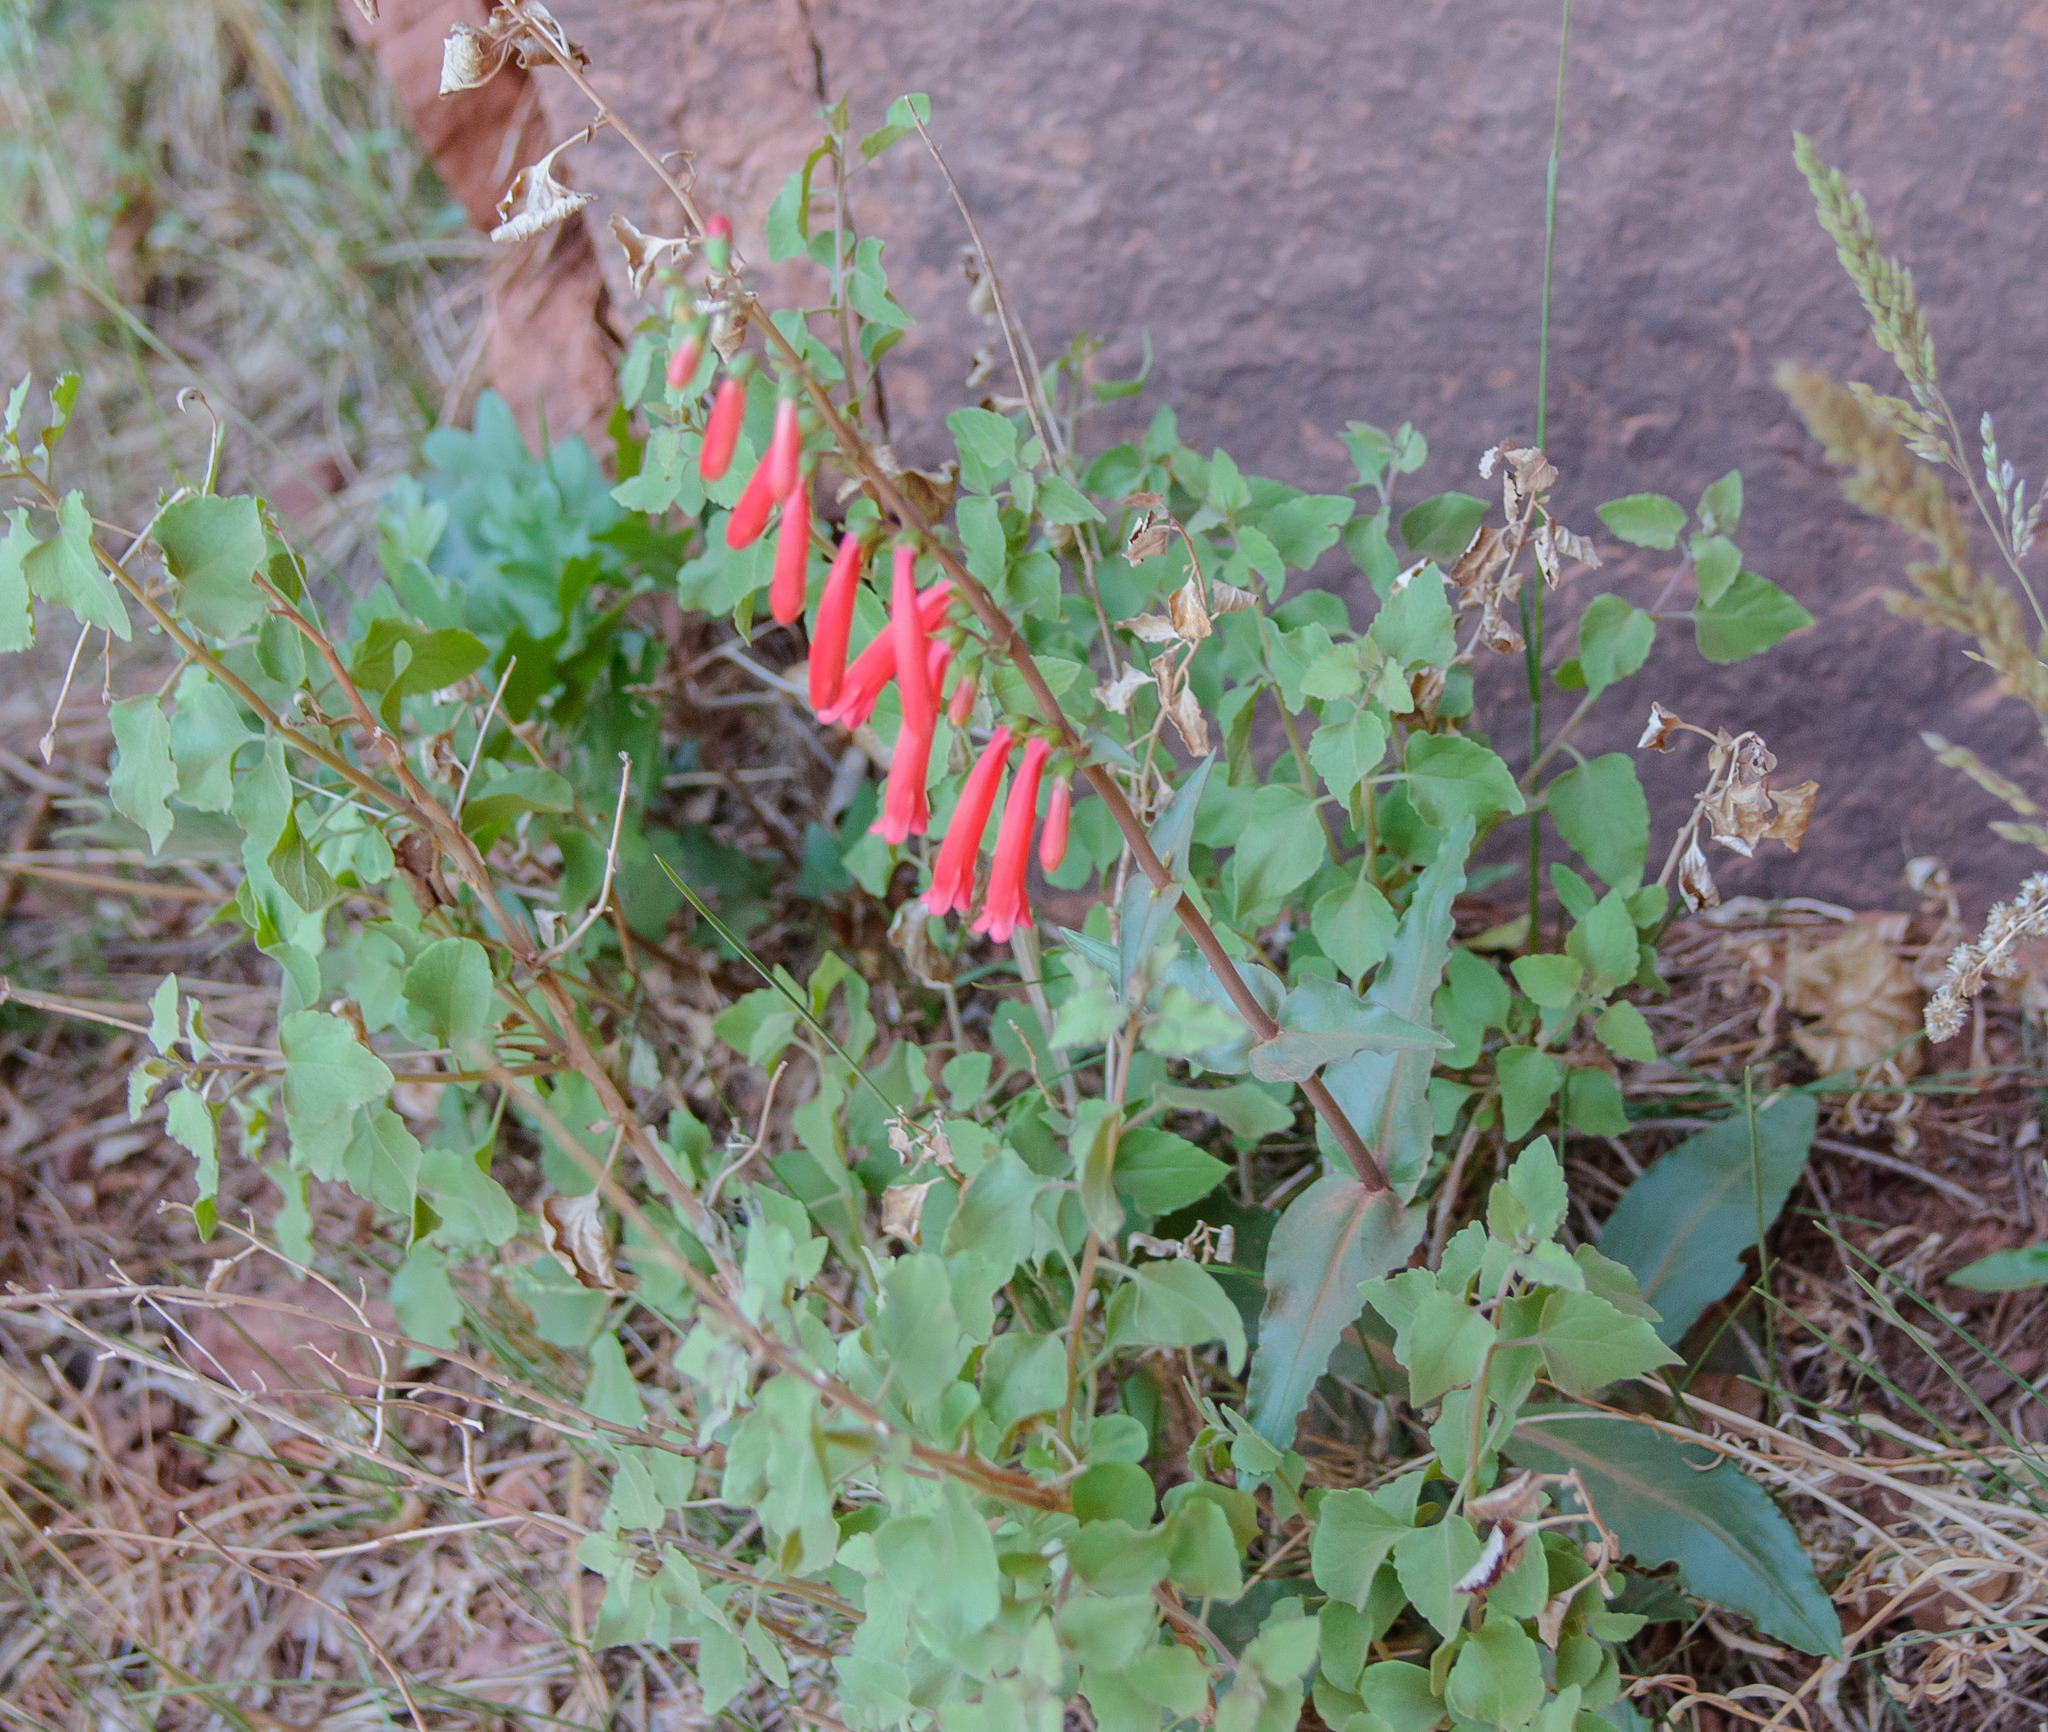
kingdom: Plantae
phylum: Tracheophyta
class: Magnoliopsida
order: Lamiales
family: Plantaginaceae
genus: Penstemon
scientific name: Penstemon eatonii
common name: Eaton's penstemon
